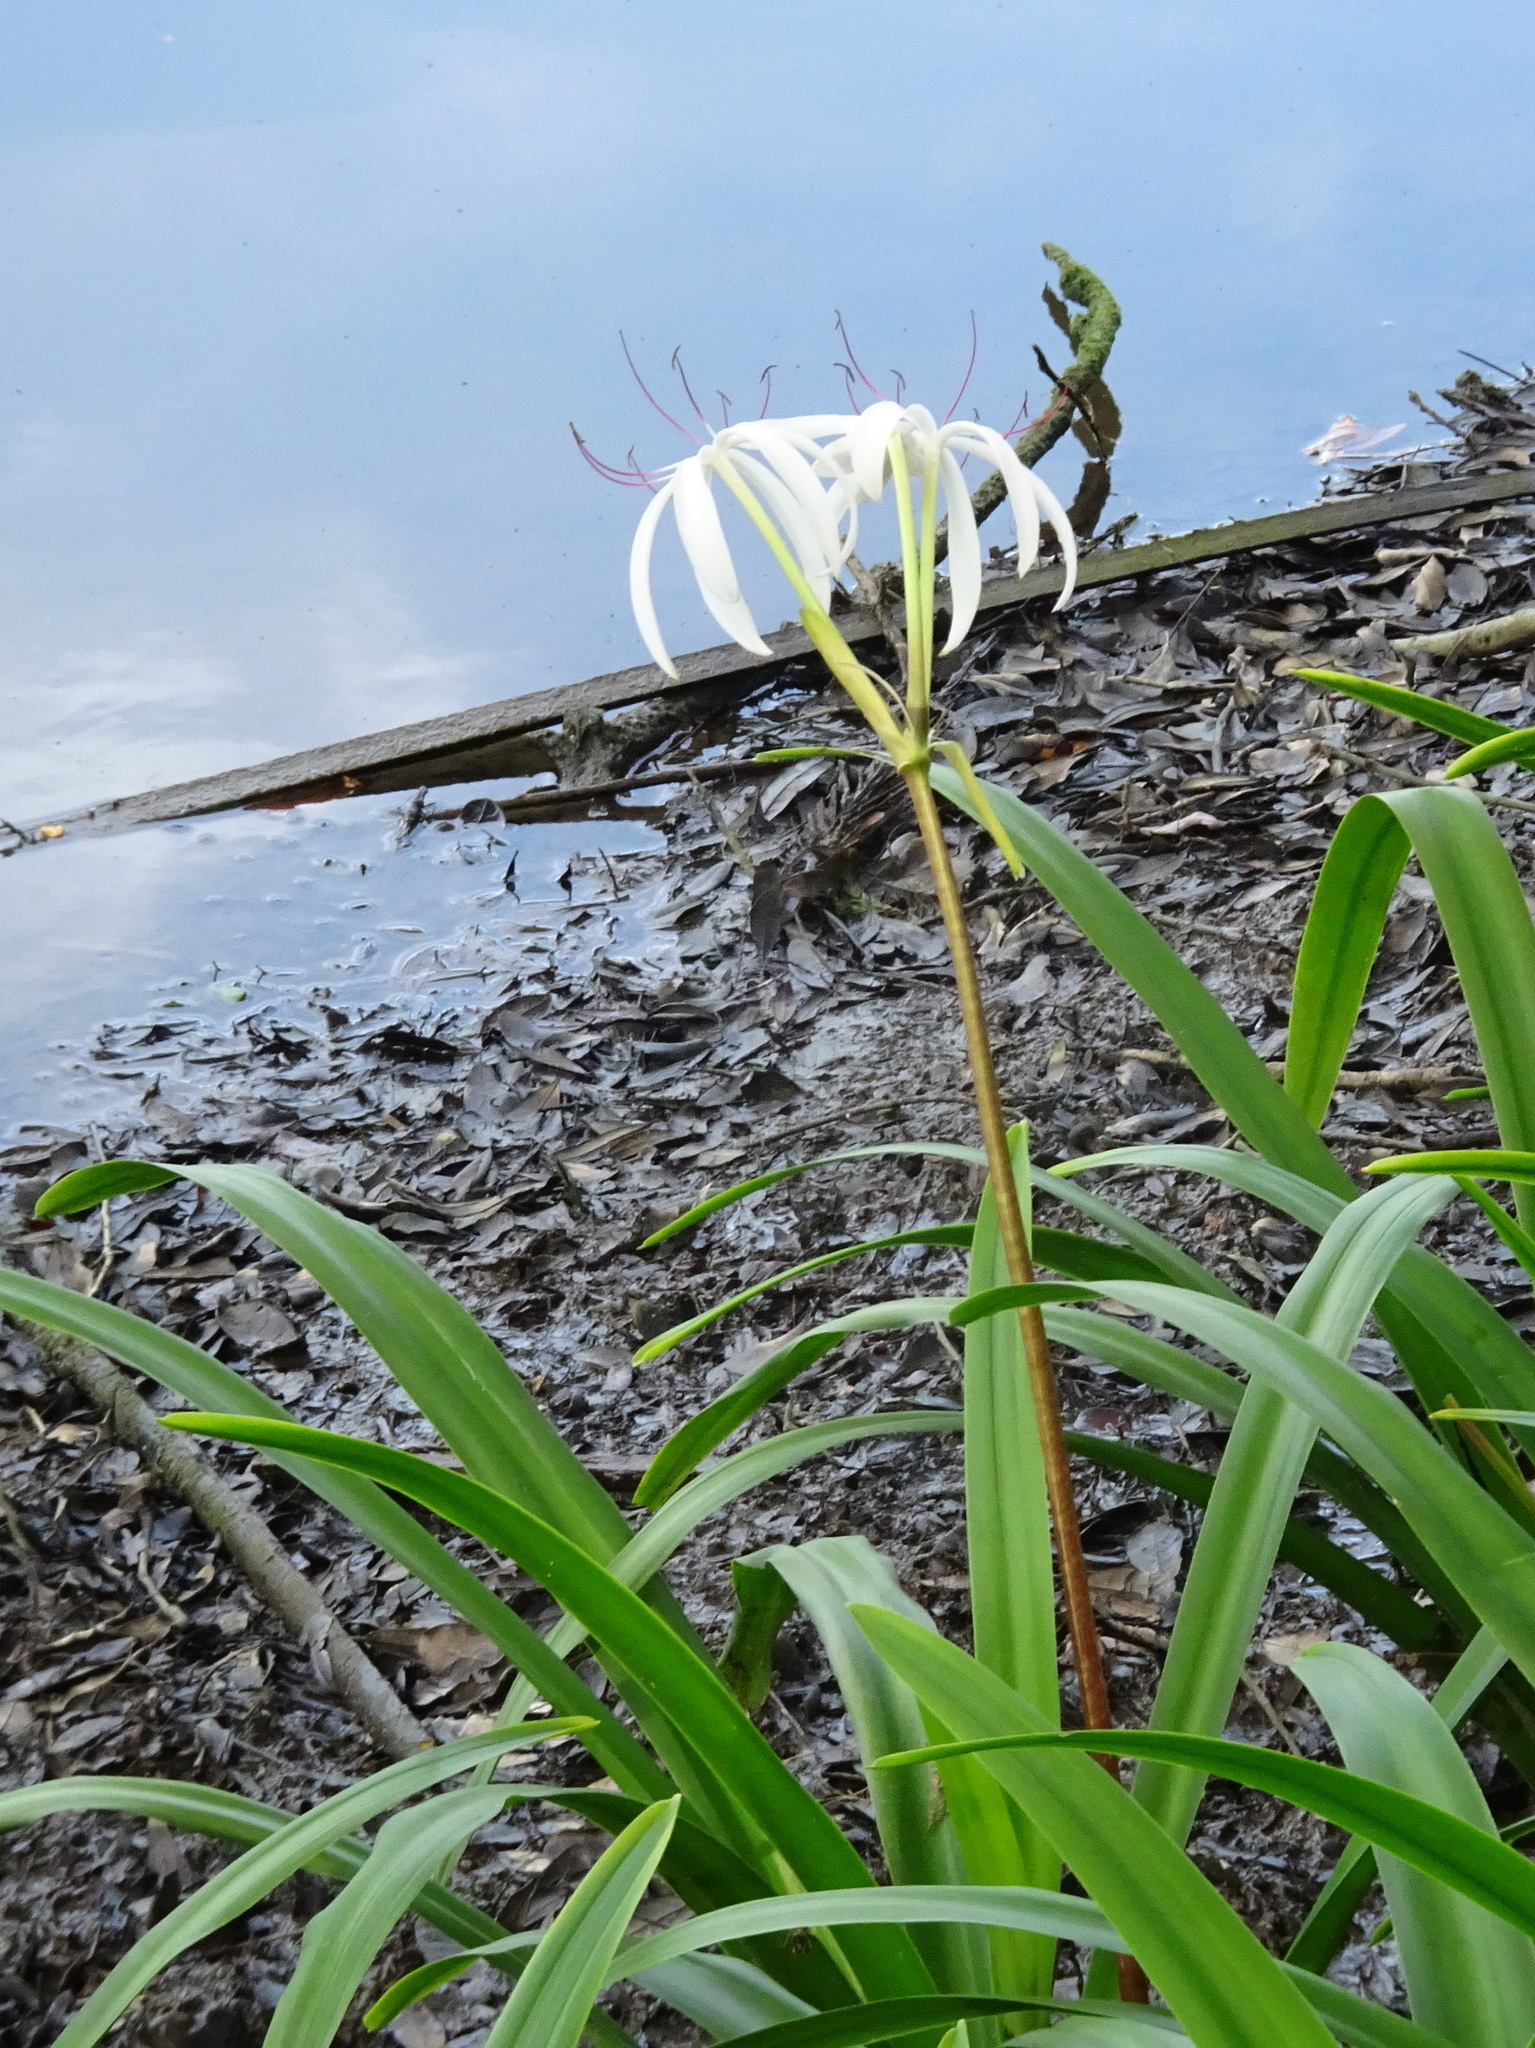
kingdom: Plantae
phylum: Tracheophyta
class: Liliopsida
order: Asparagales
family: Amaryllidaceae
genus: Crinum
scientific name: Crinum americanum
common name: Florida swamp-lily
